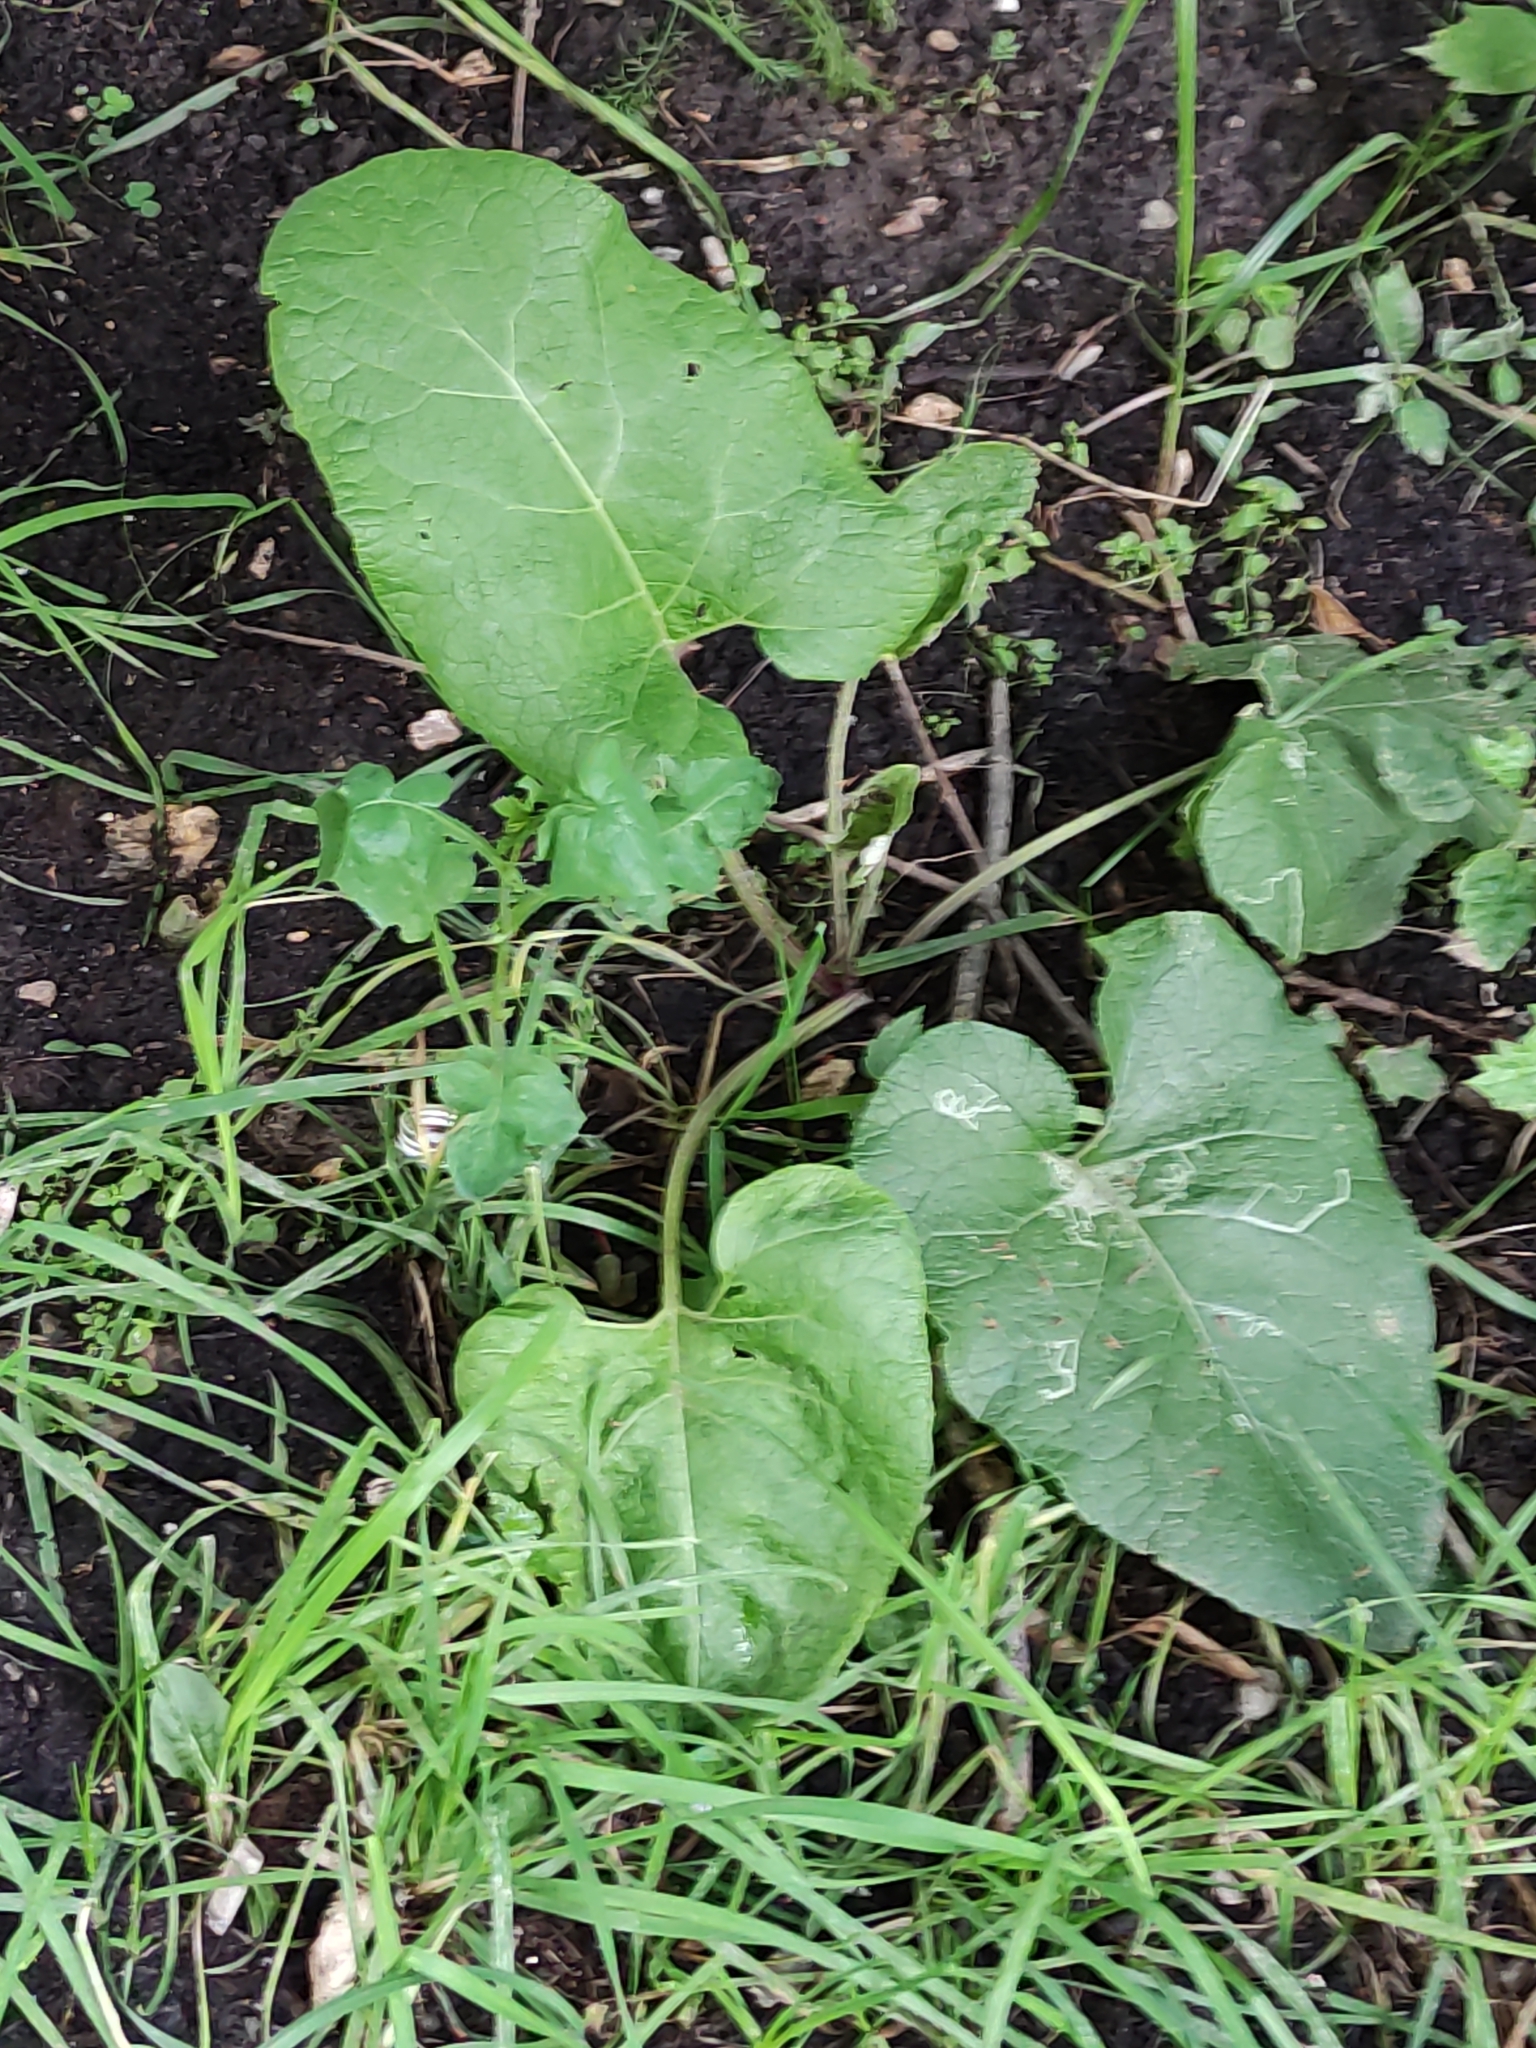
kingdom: Plantae
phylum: Tracheophyta
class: Magnoliopsida
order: Asterales
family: Asteraceae
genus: Arctium
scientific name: Arctium
